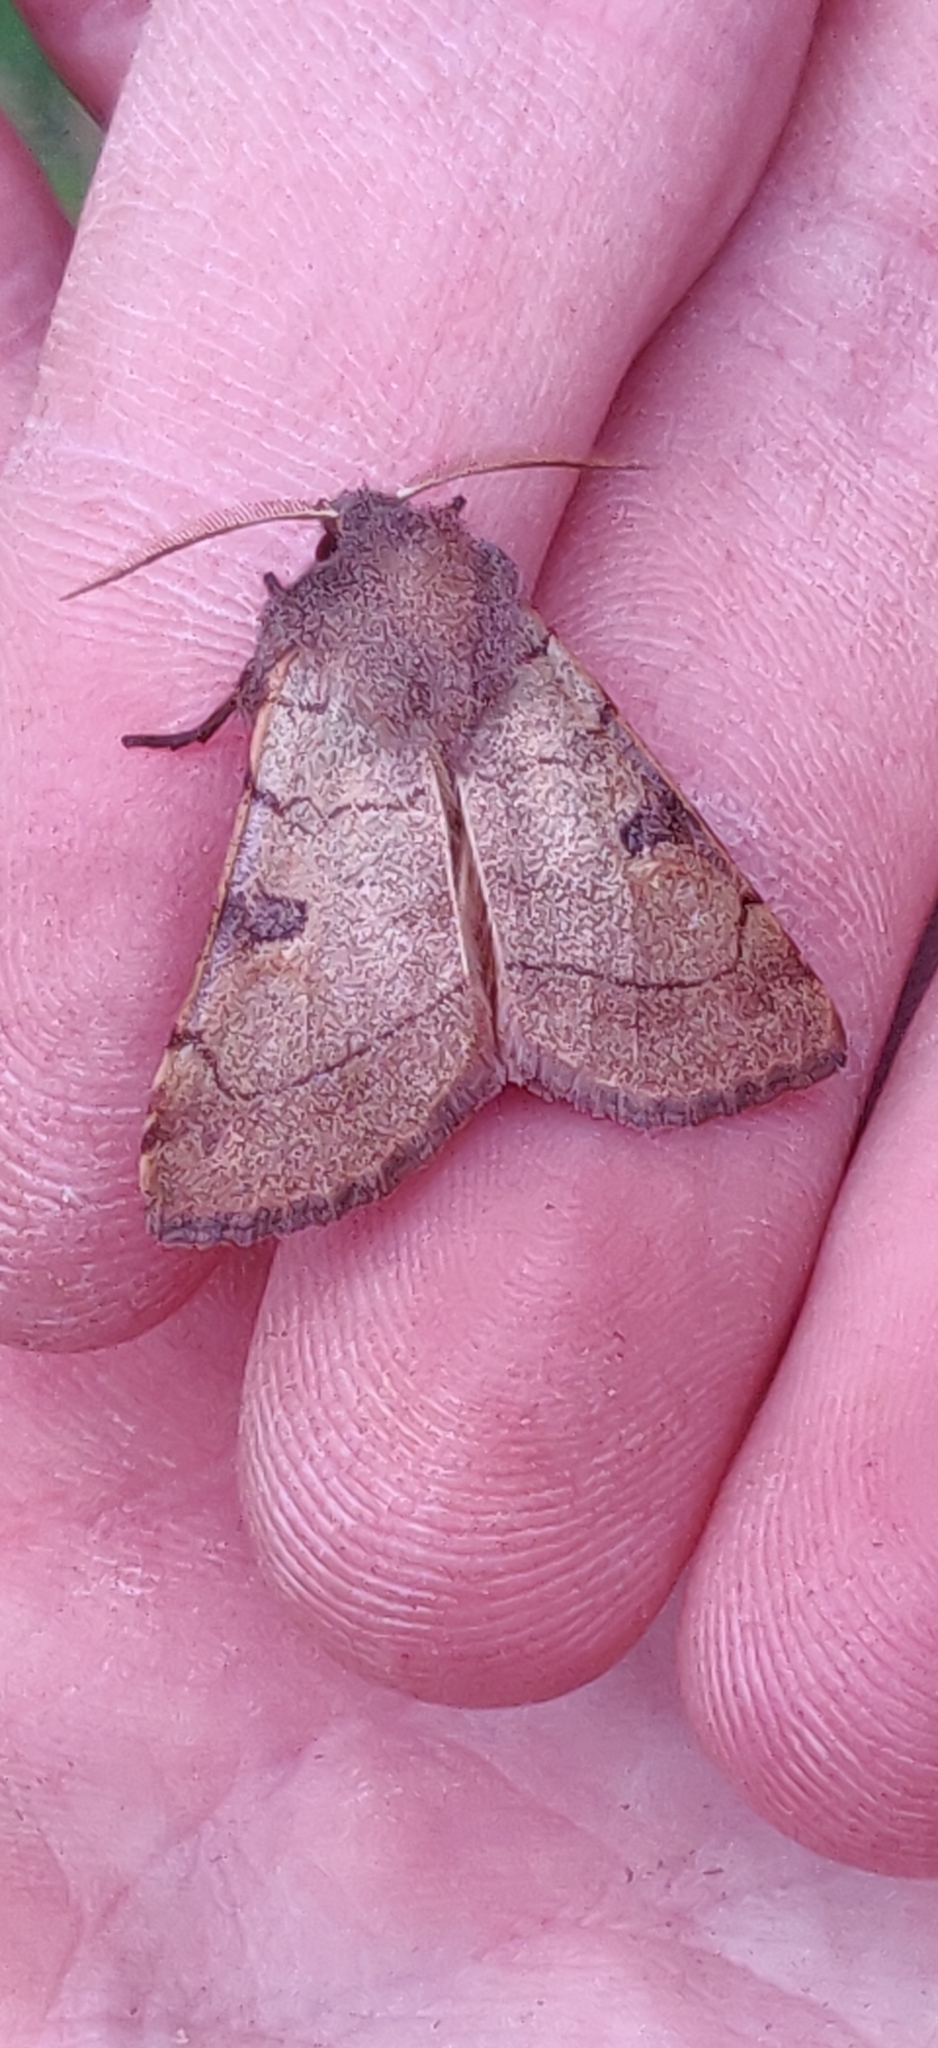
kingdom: Animalia
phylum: Arthropoda
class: Insecta
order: Lepidoptera
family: Noctuidae
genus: Choephora
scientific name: Choephora fungorum
